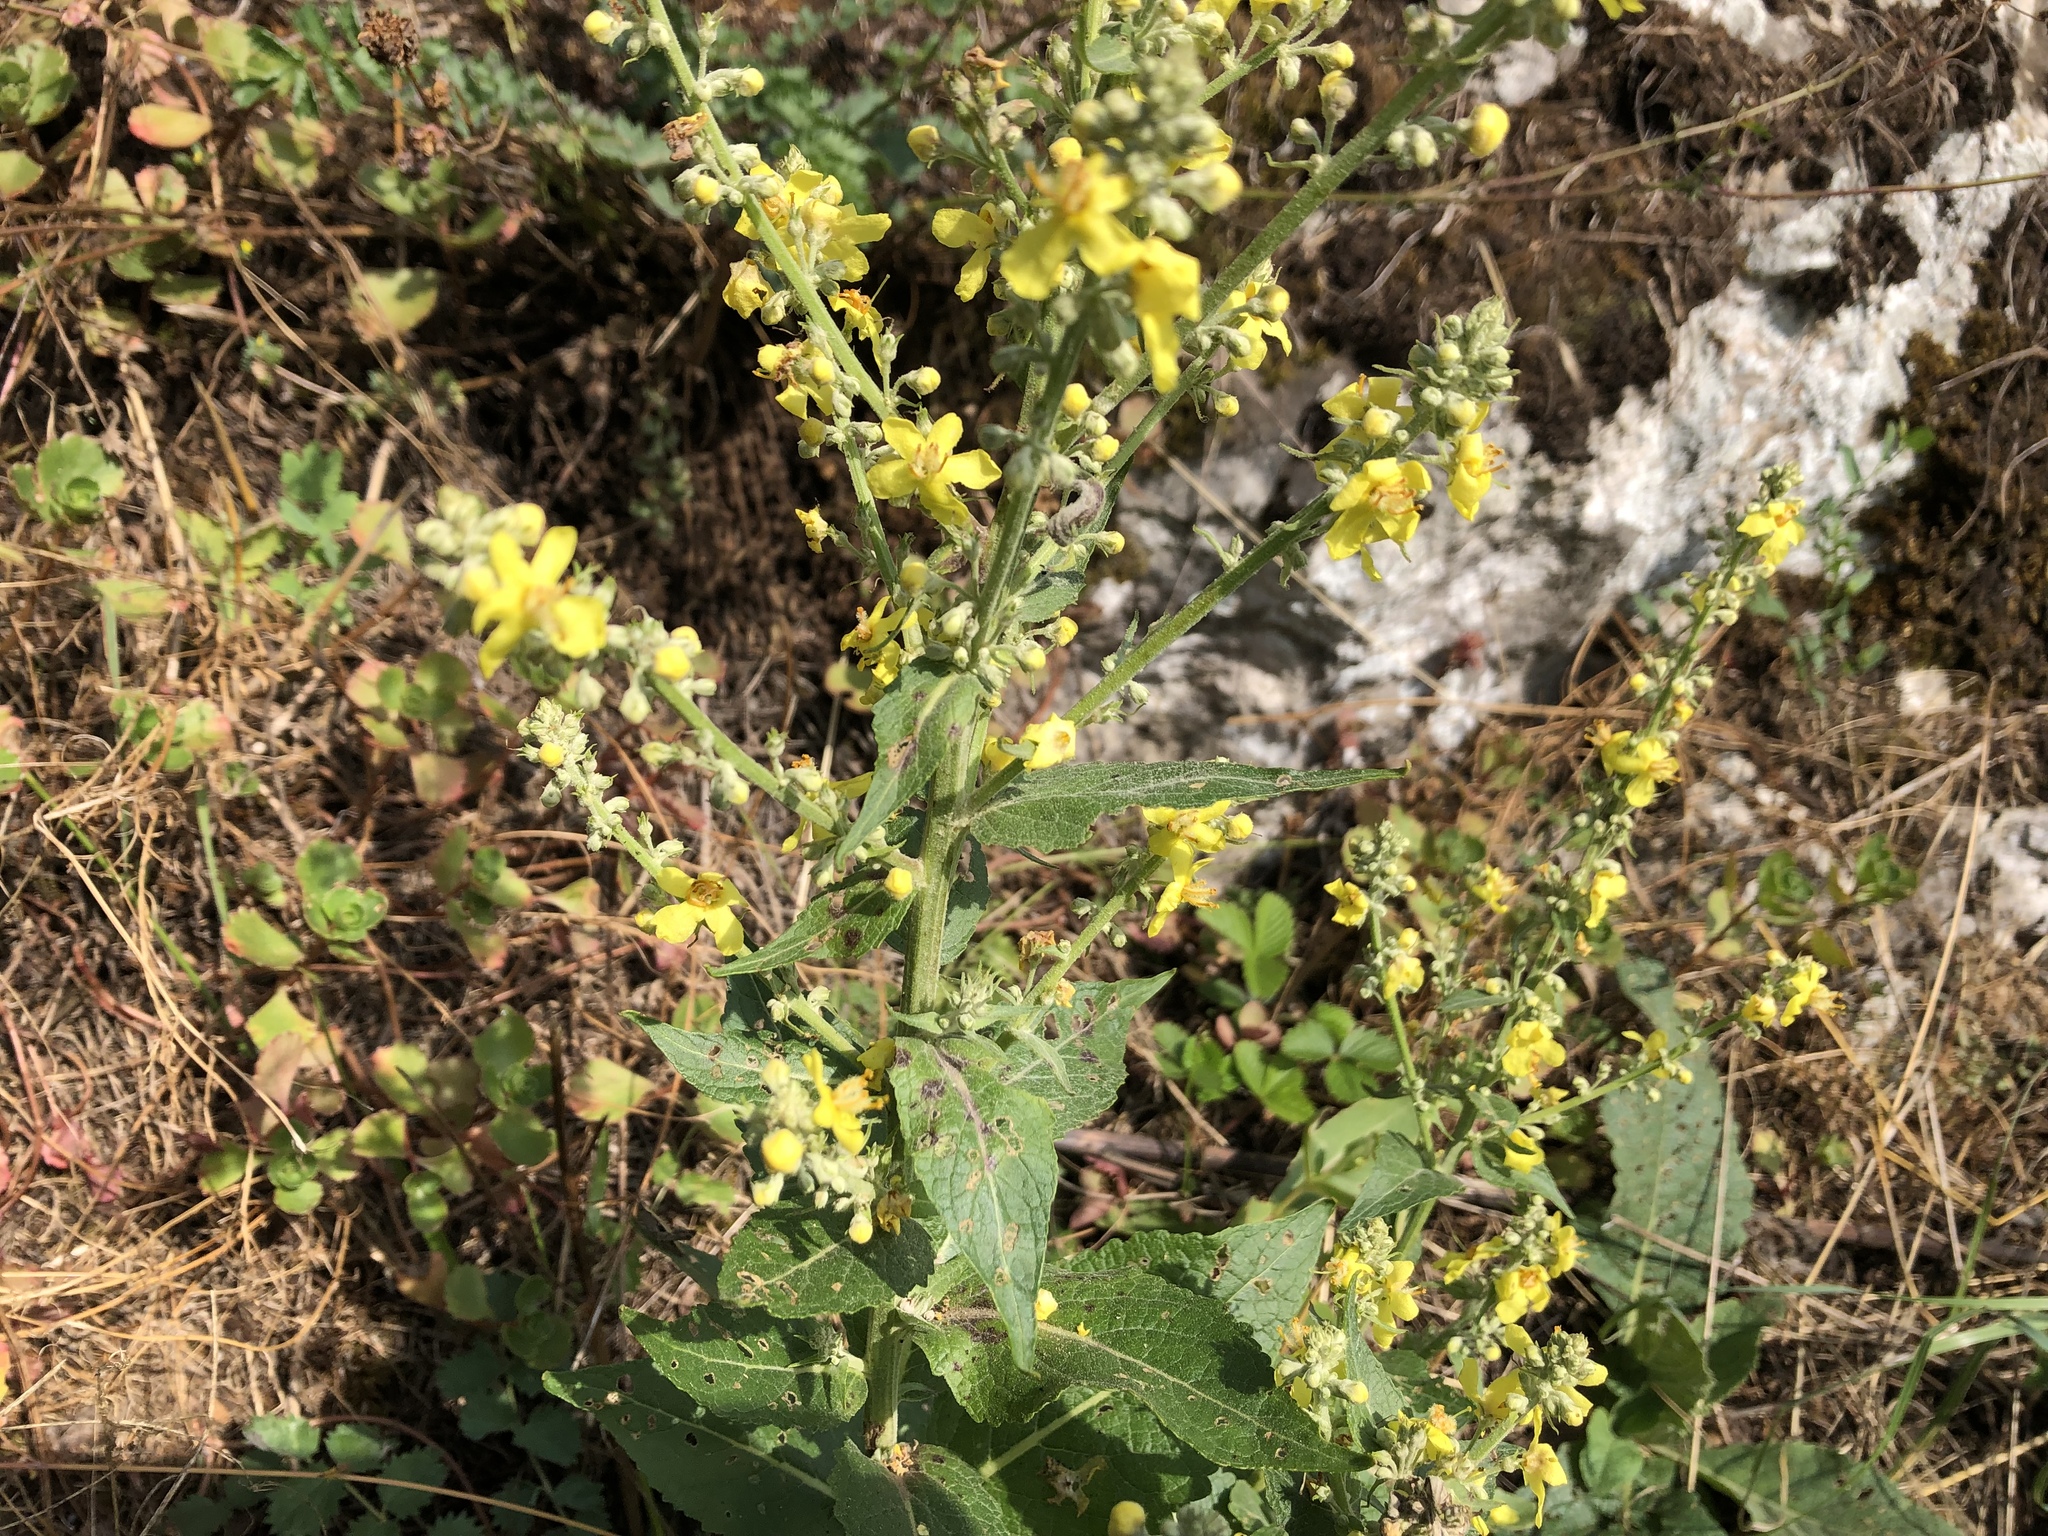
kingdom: Plantae
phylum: Tracheophyta
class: Magnoliopsida
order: Lamiales
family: Scrophulariaceae
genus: Verbascum
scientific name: Verbascum lychnitis
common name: White mullein
